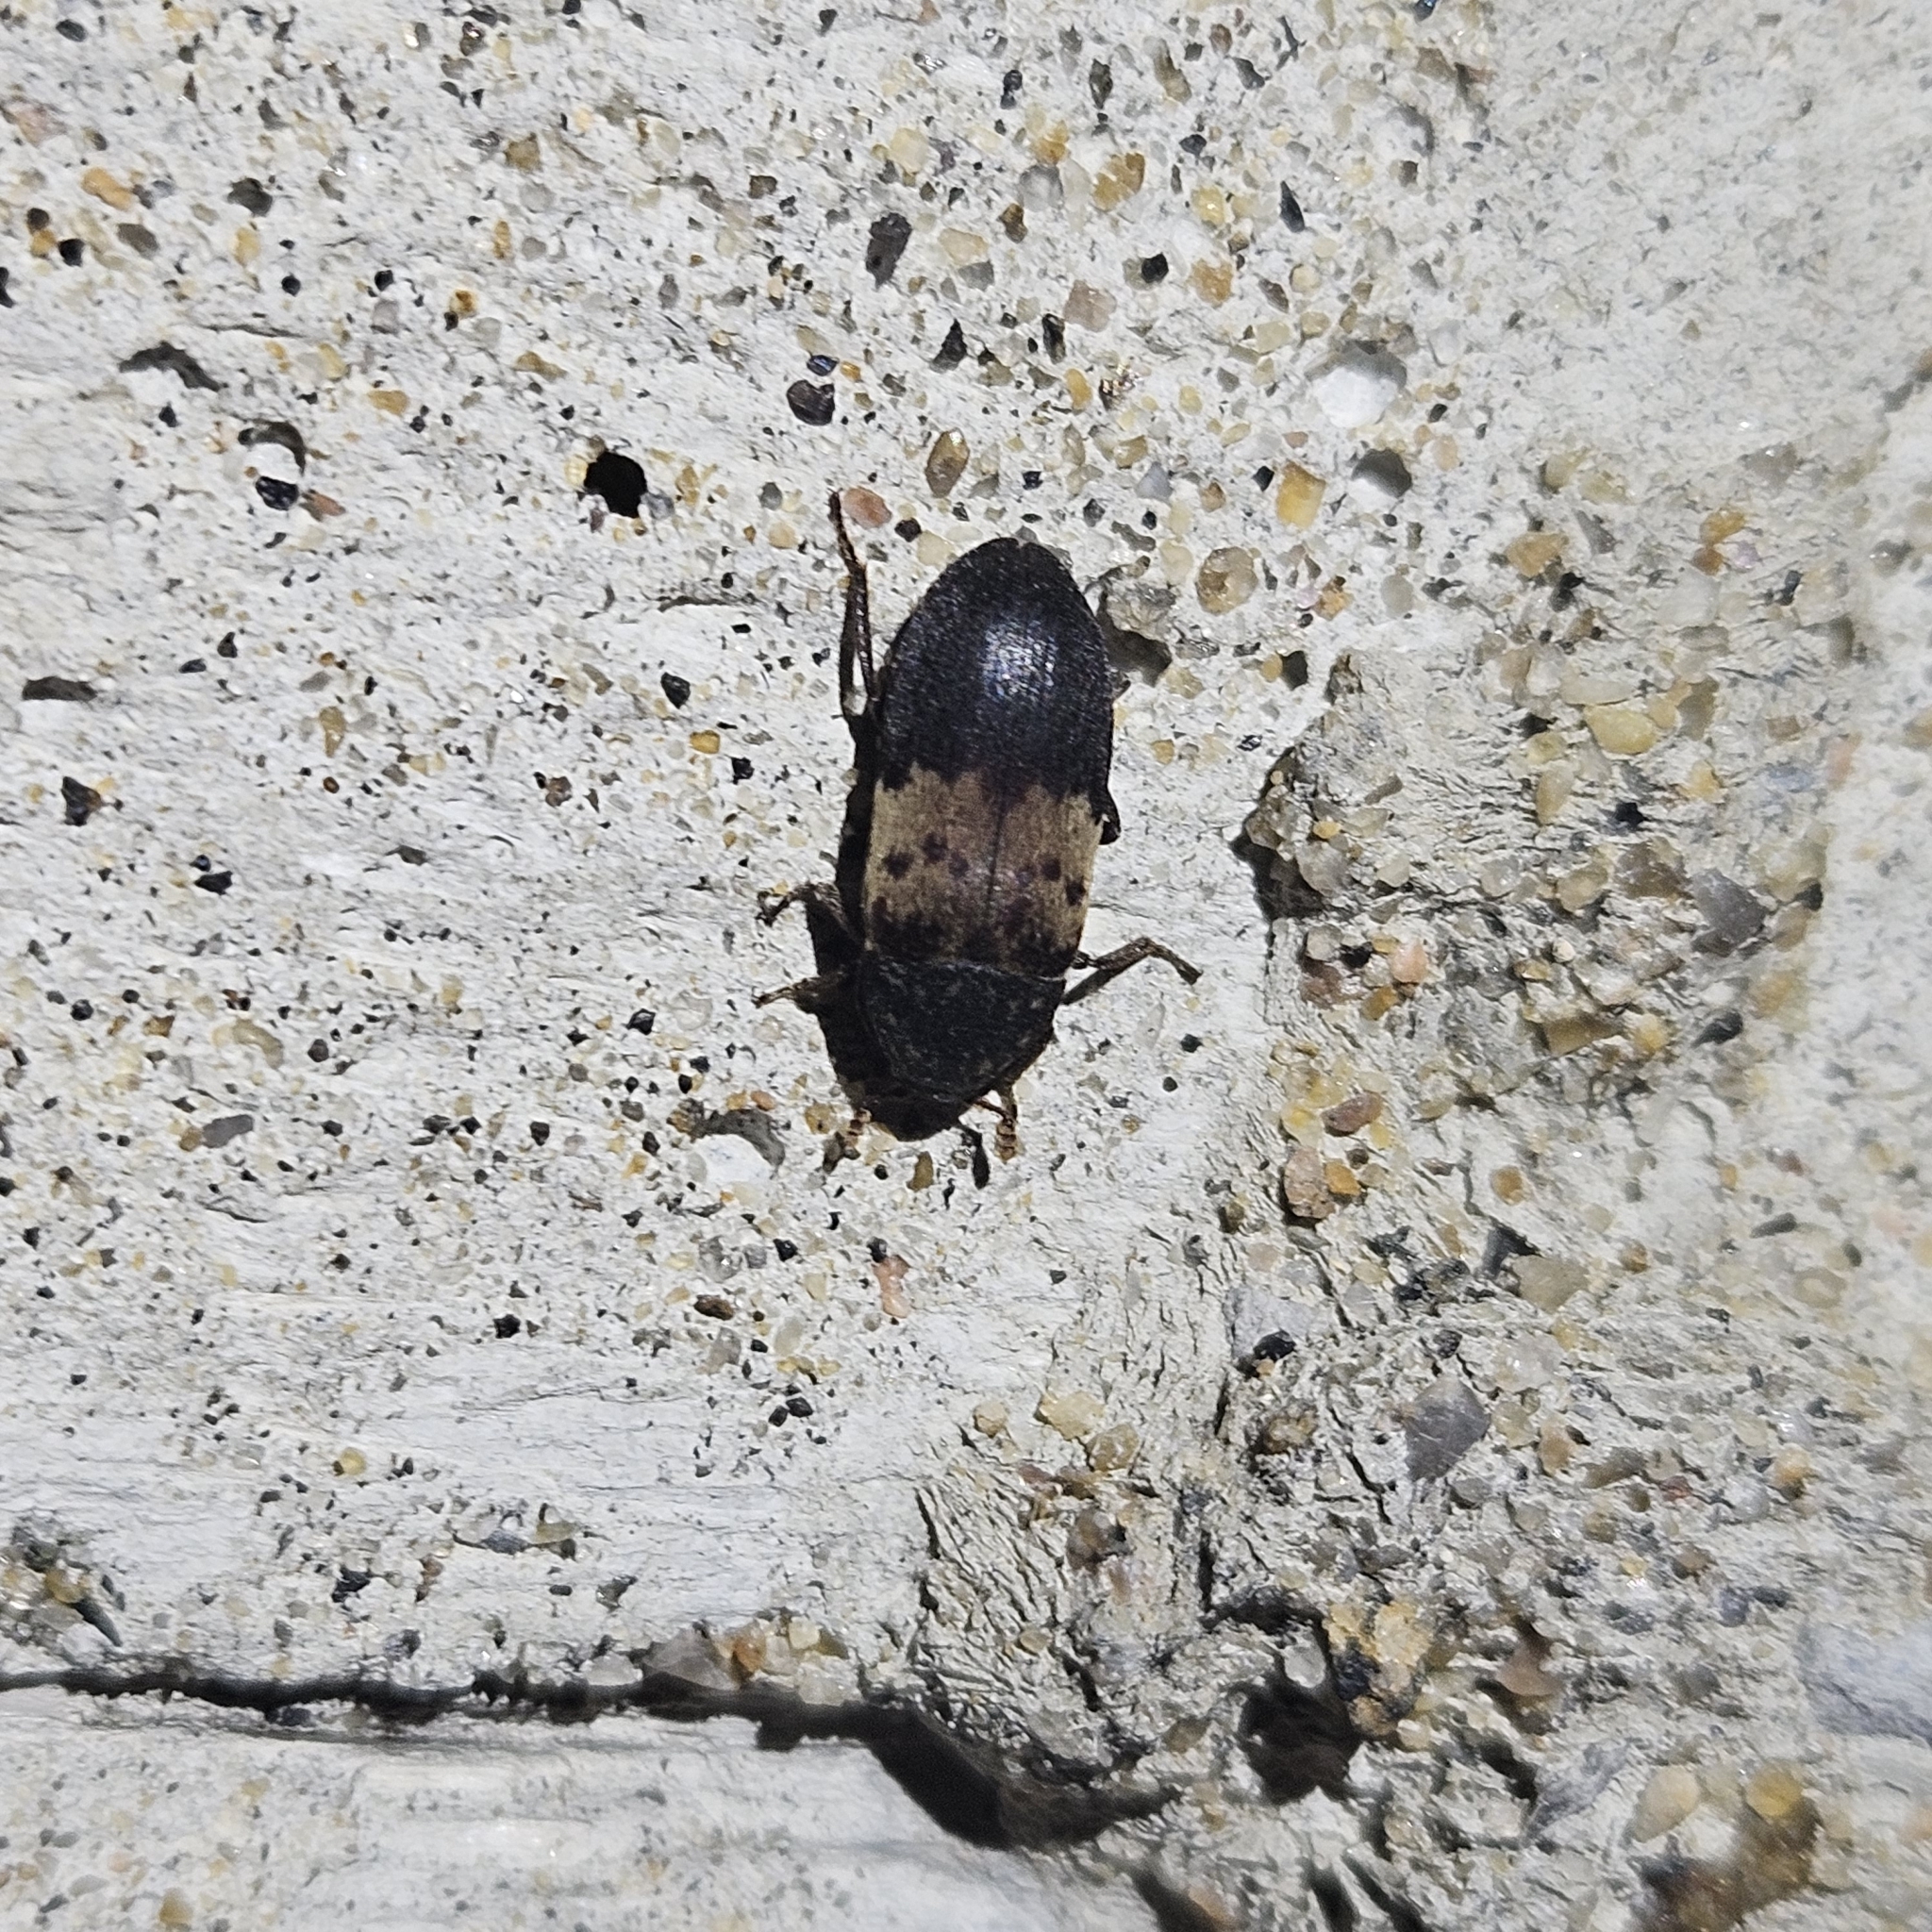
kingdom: Animalia
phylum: Arthropoda
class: Insecta
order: Coleoptera
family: Dermestidae
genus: Dermestes
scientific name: Dermestes lardarius
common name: Larder beetle
